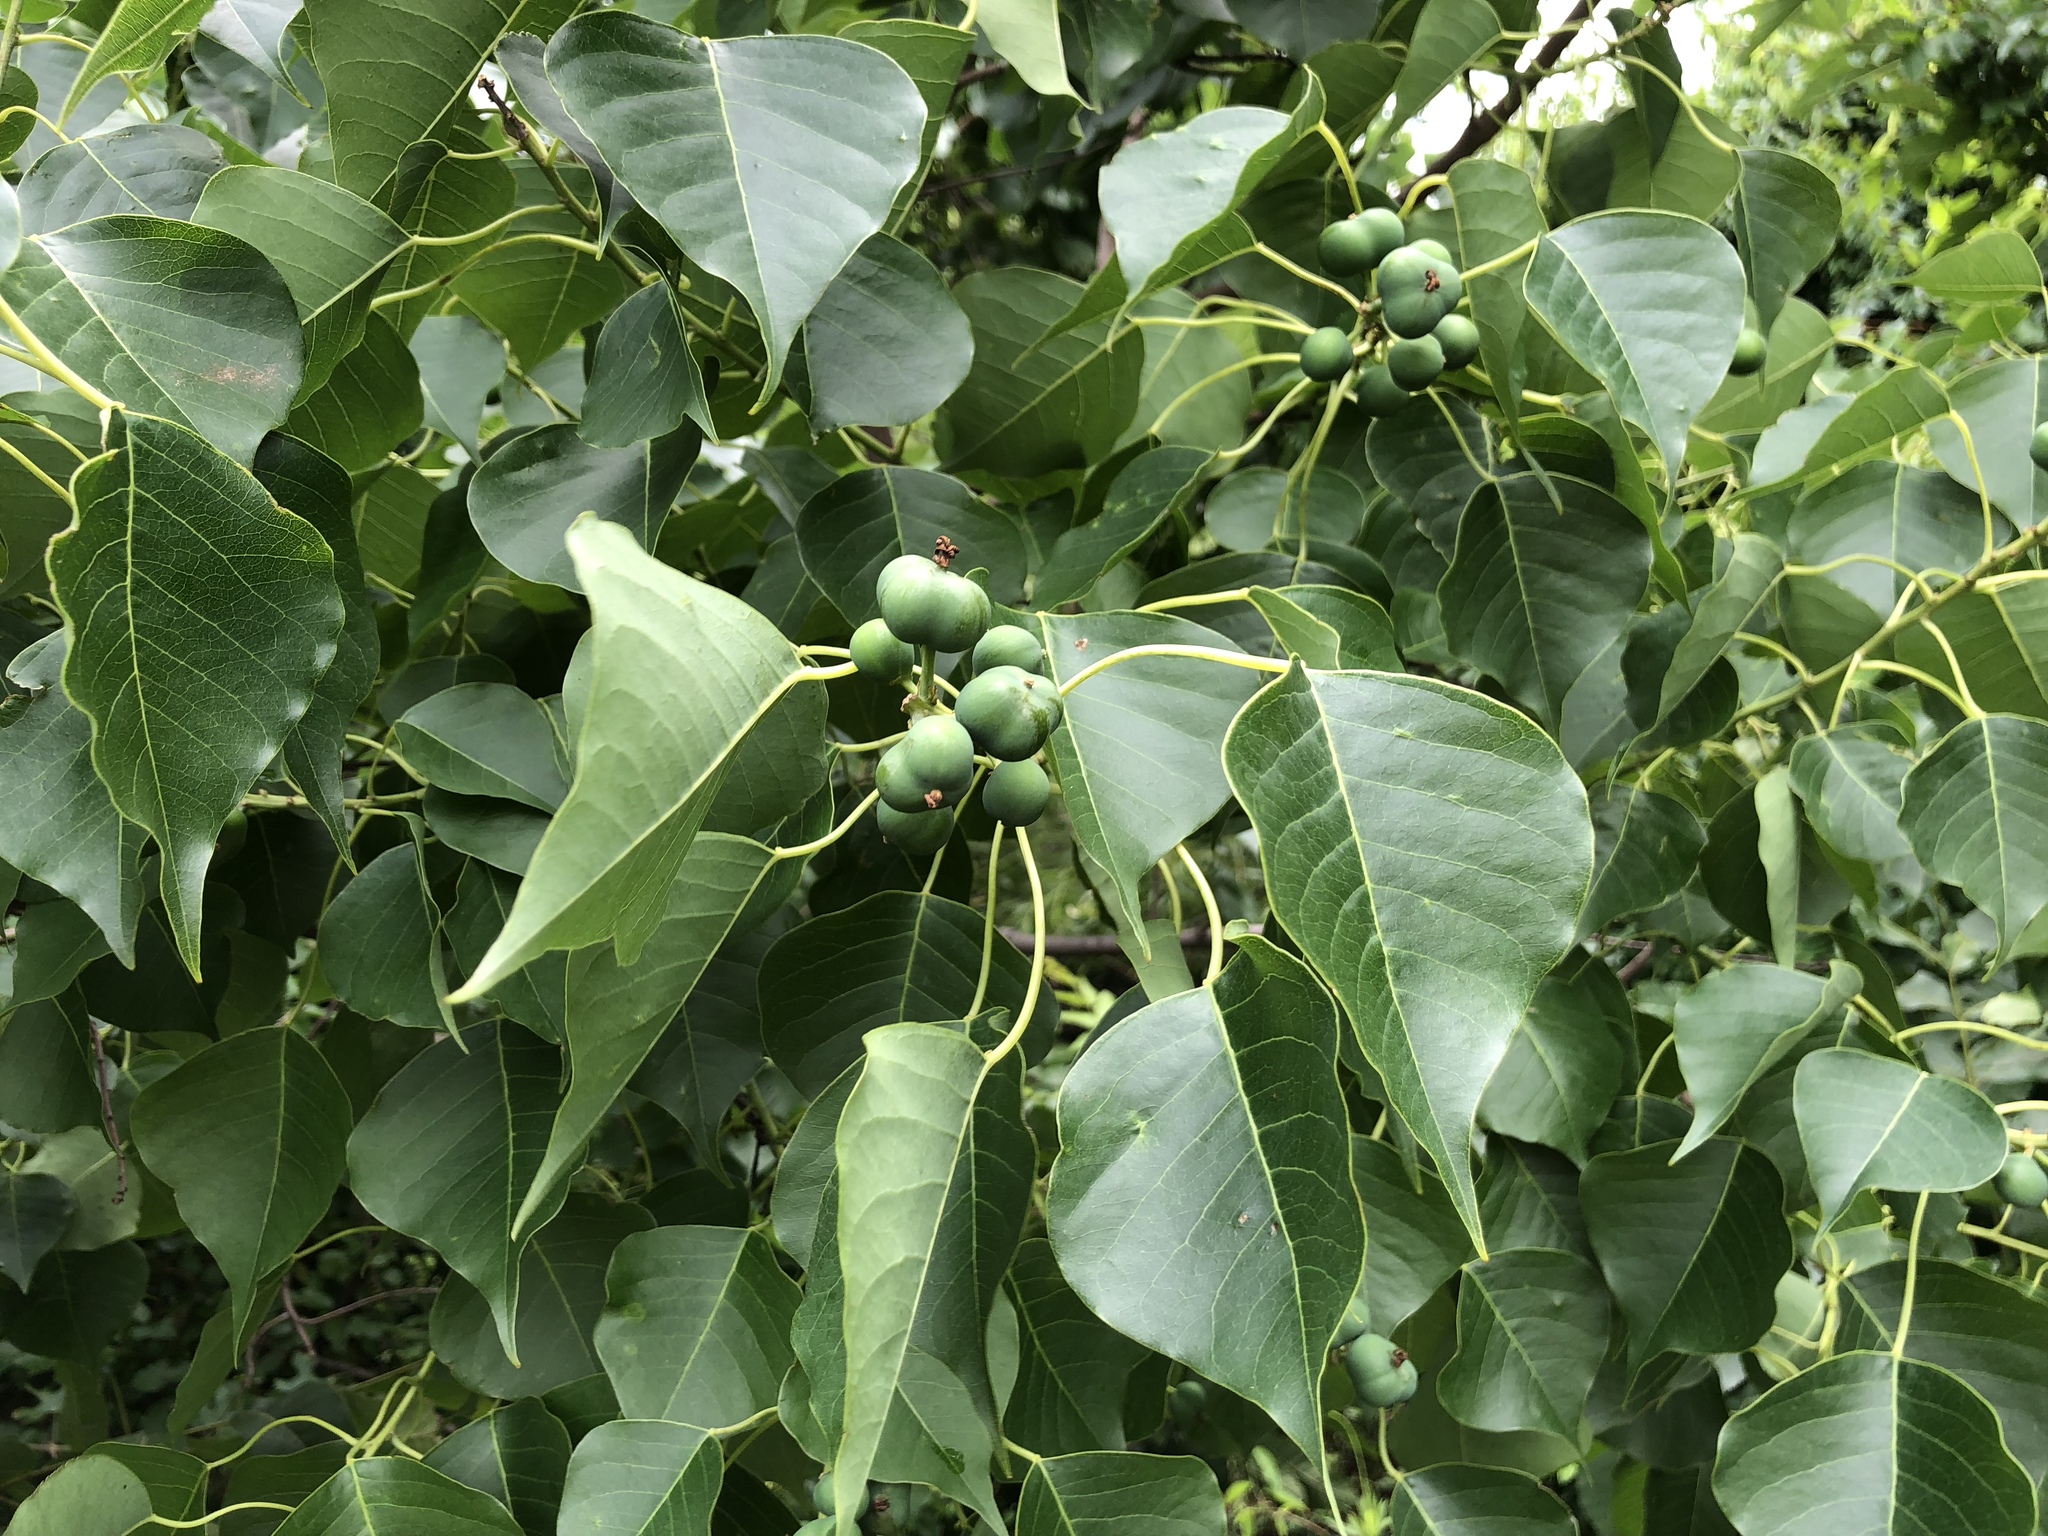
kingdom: Plantae
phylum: Tracheophyta
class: Magnoliopsida
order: Malpighiales
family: Euphorbiaceae
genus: Triadica
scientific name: Triadica sebifera
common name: Chinese tallow
